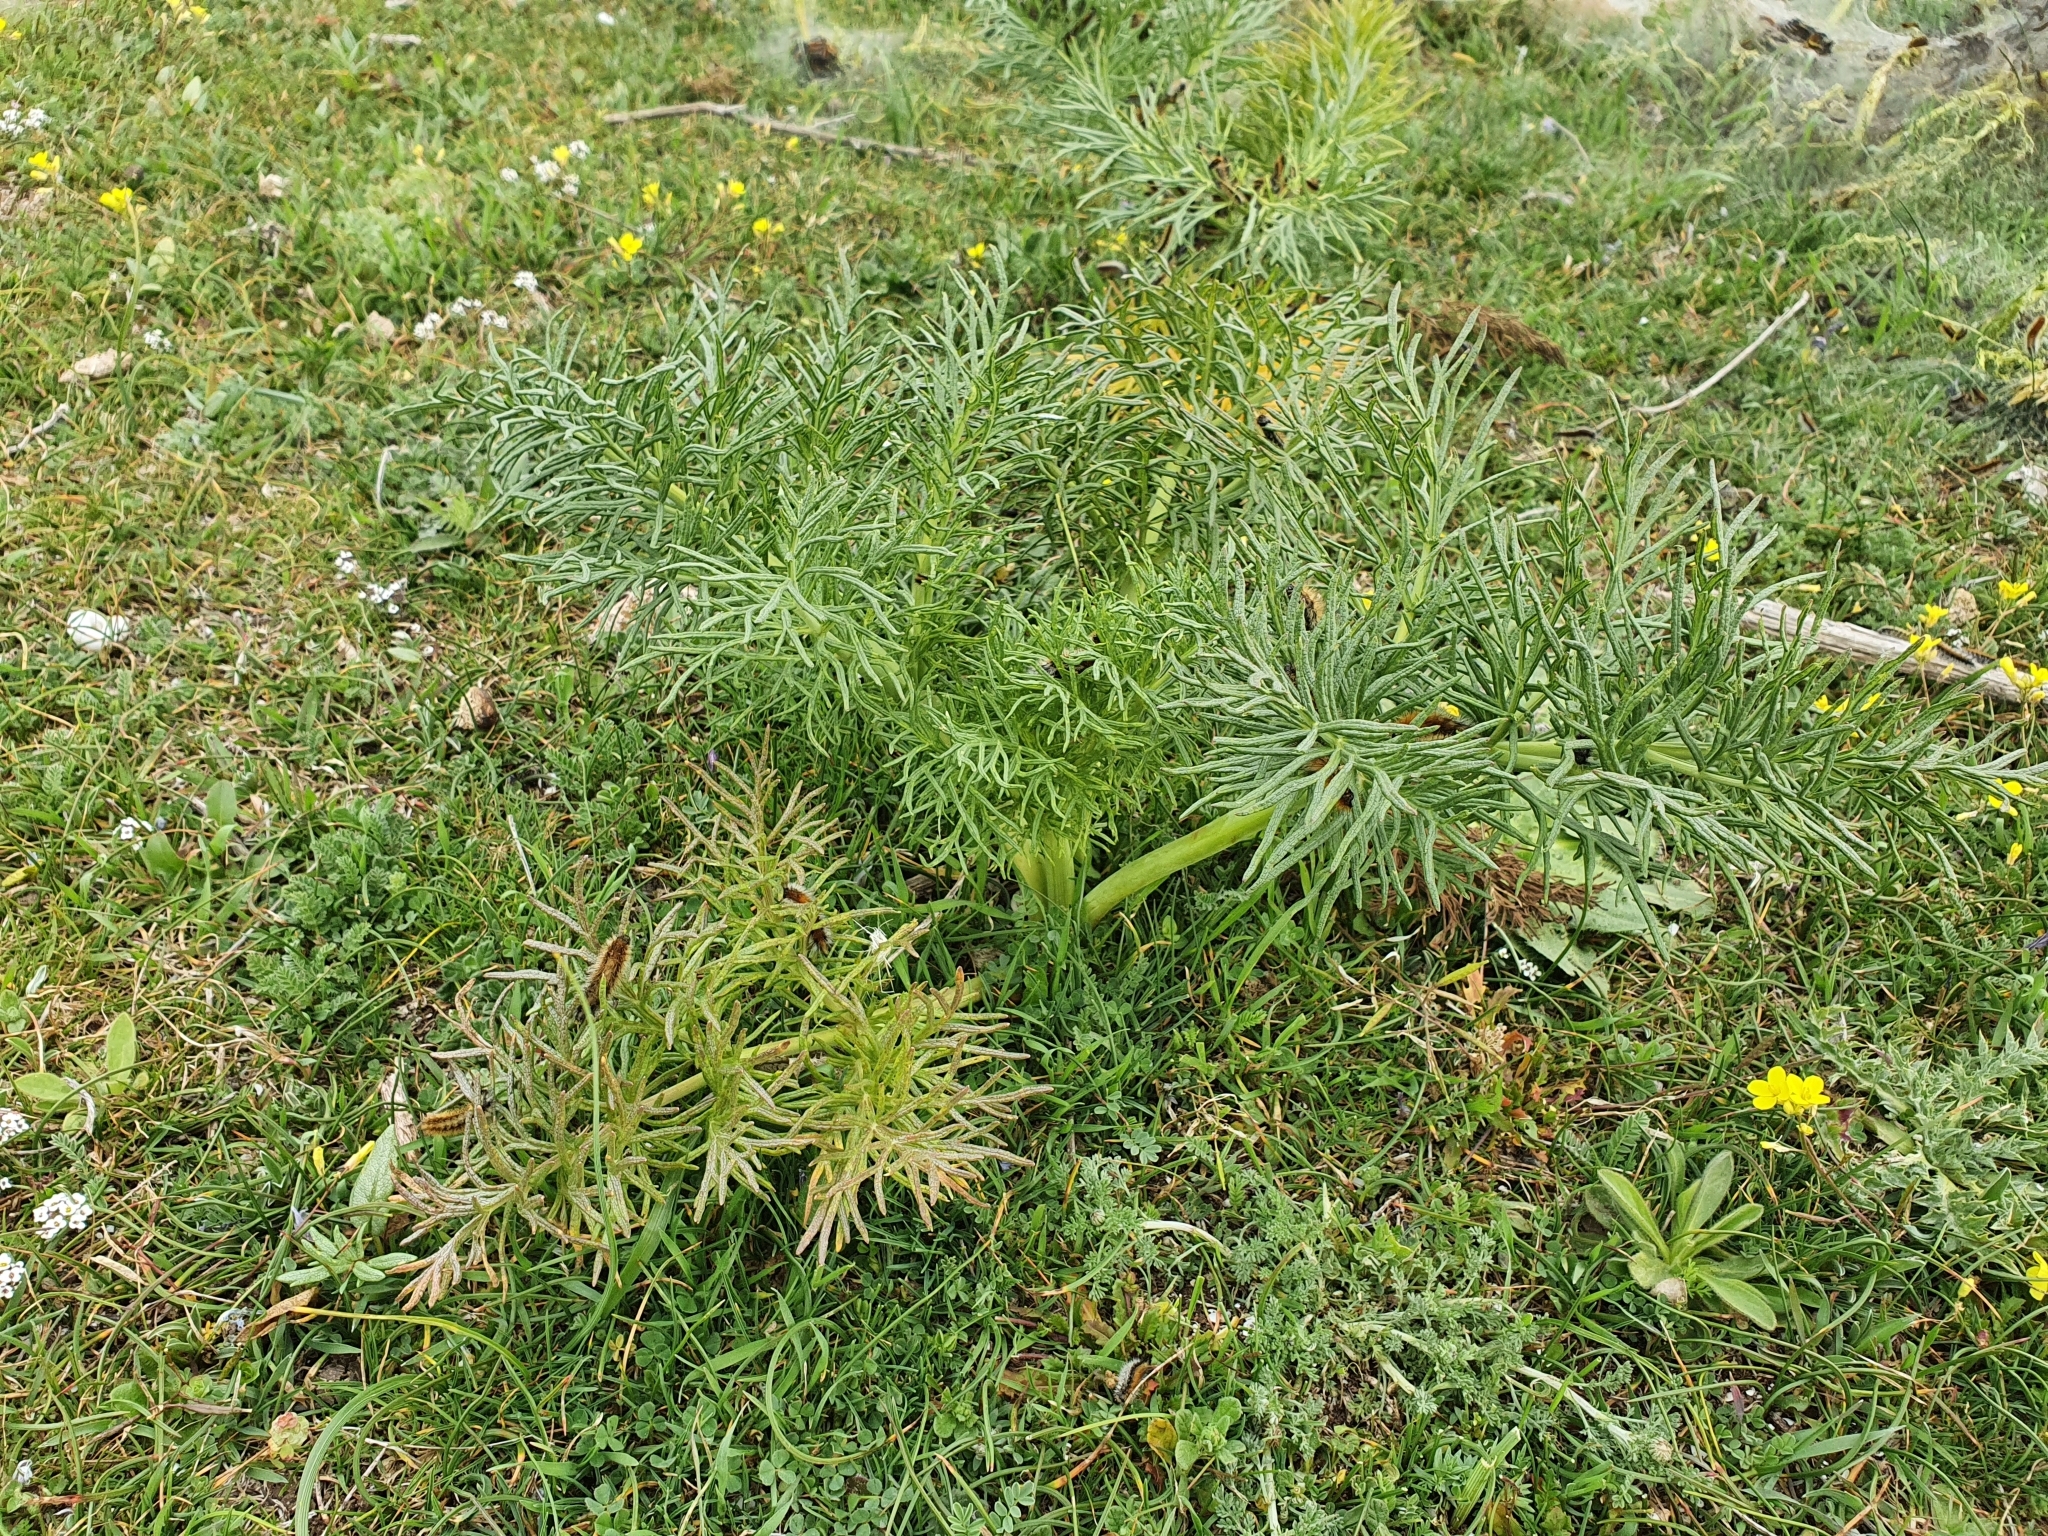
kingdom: Plantae
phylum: Tracheophyta
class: Magnoliopsida
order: Apiales
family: Apiaceae
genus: Thapsia
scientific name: Thapsia garganica
